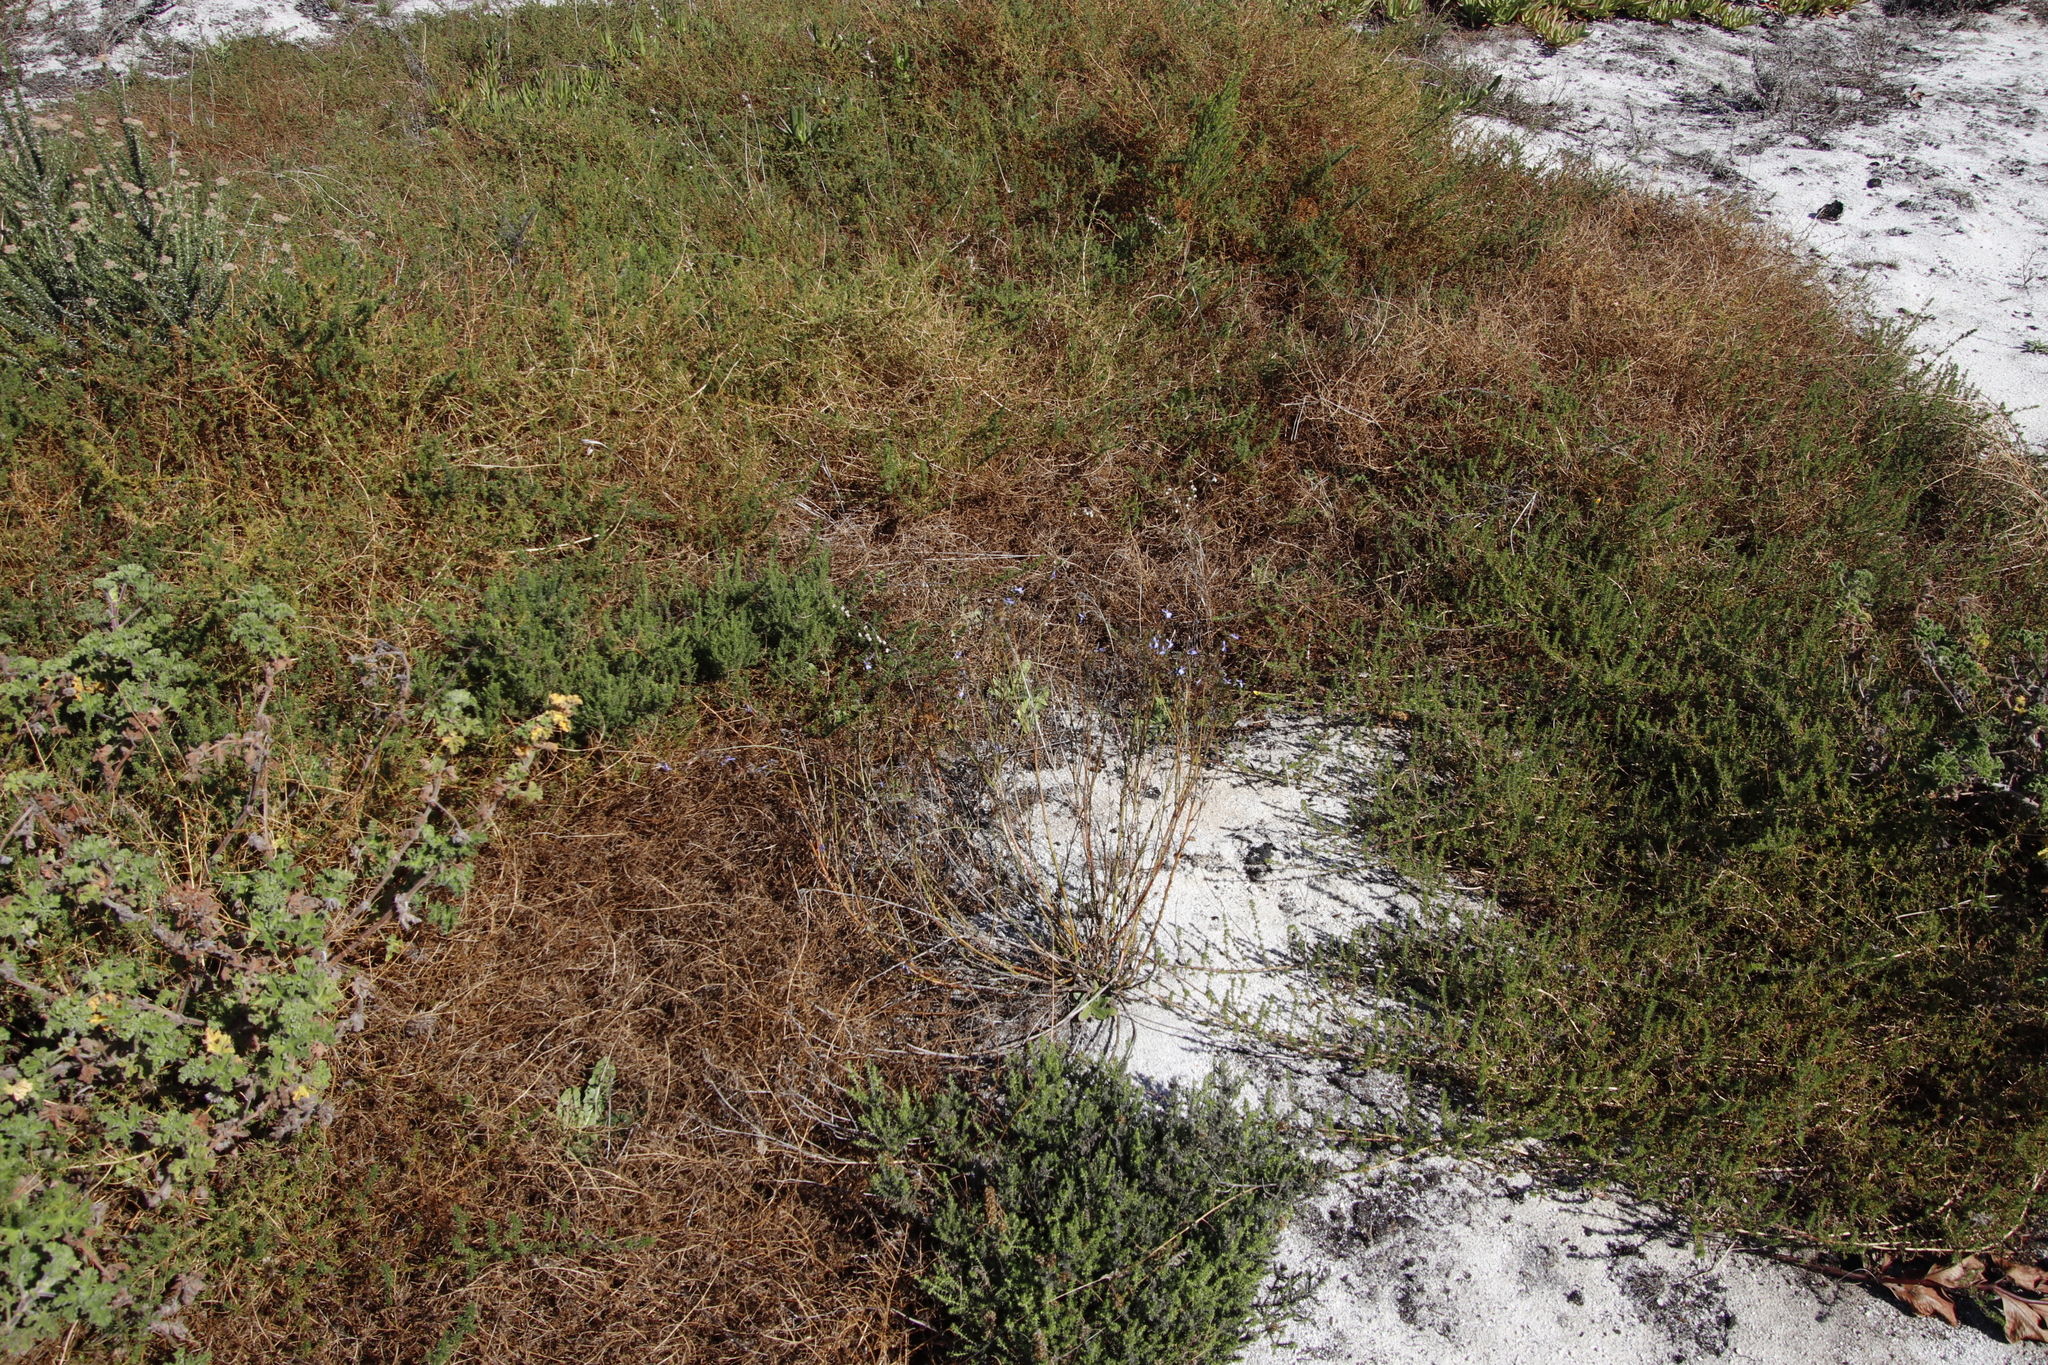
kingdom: Plantae
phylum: Tracheophyta
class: Magnoliopsida
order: Asterales
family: Campanulaceae
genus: Lobelia
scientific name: Lobelia comosa
